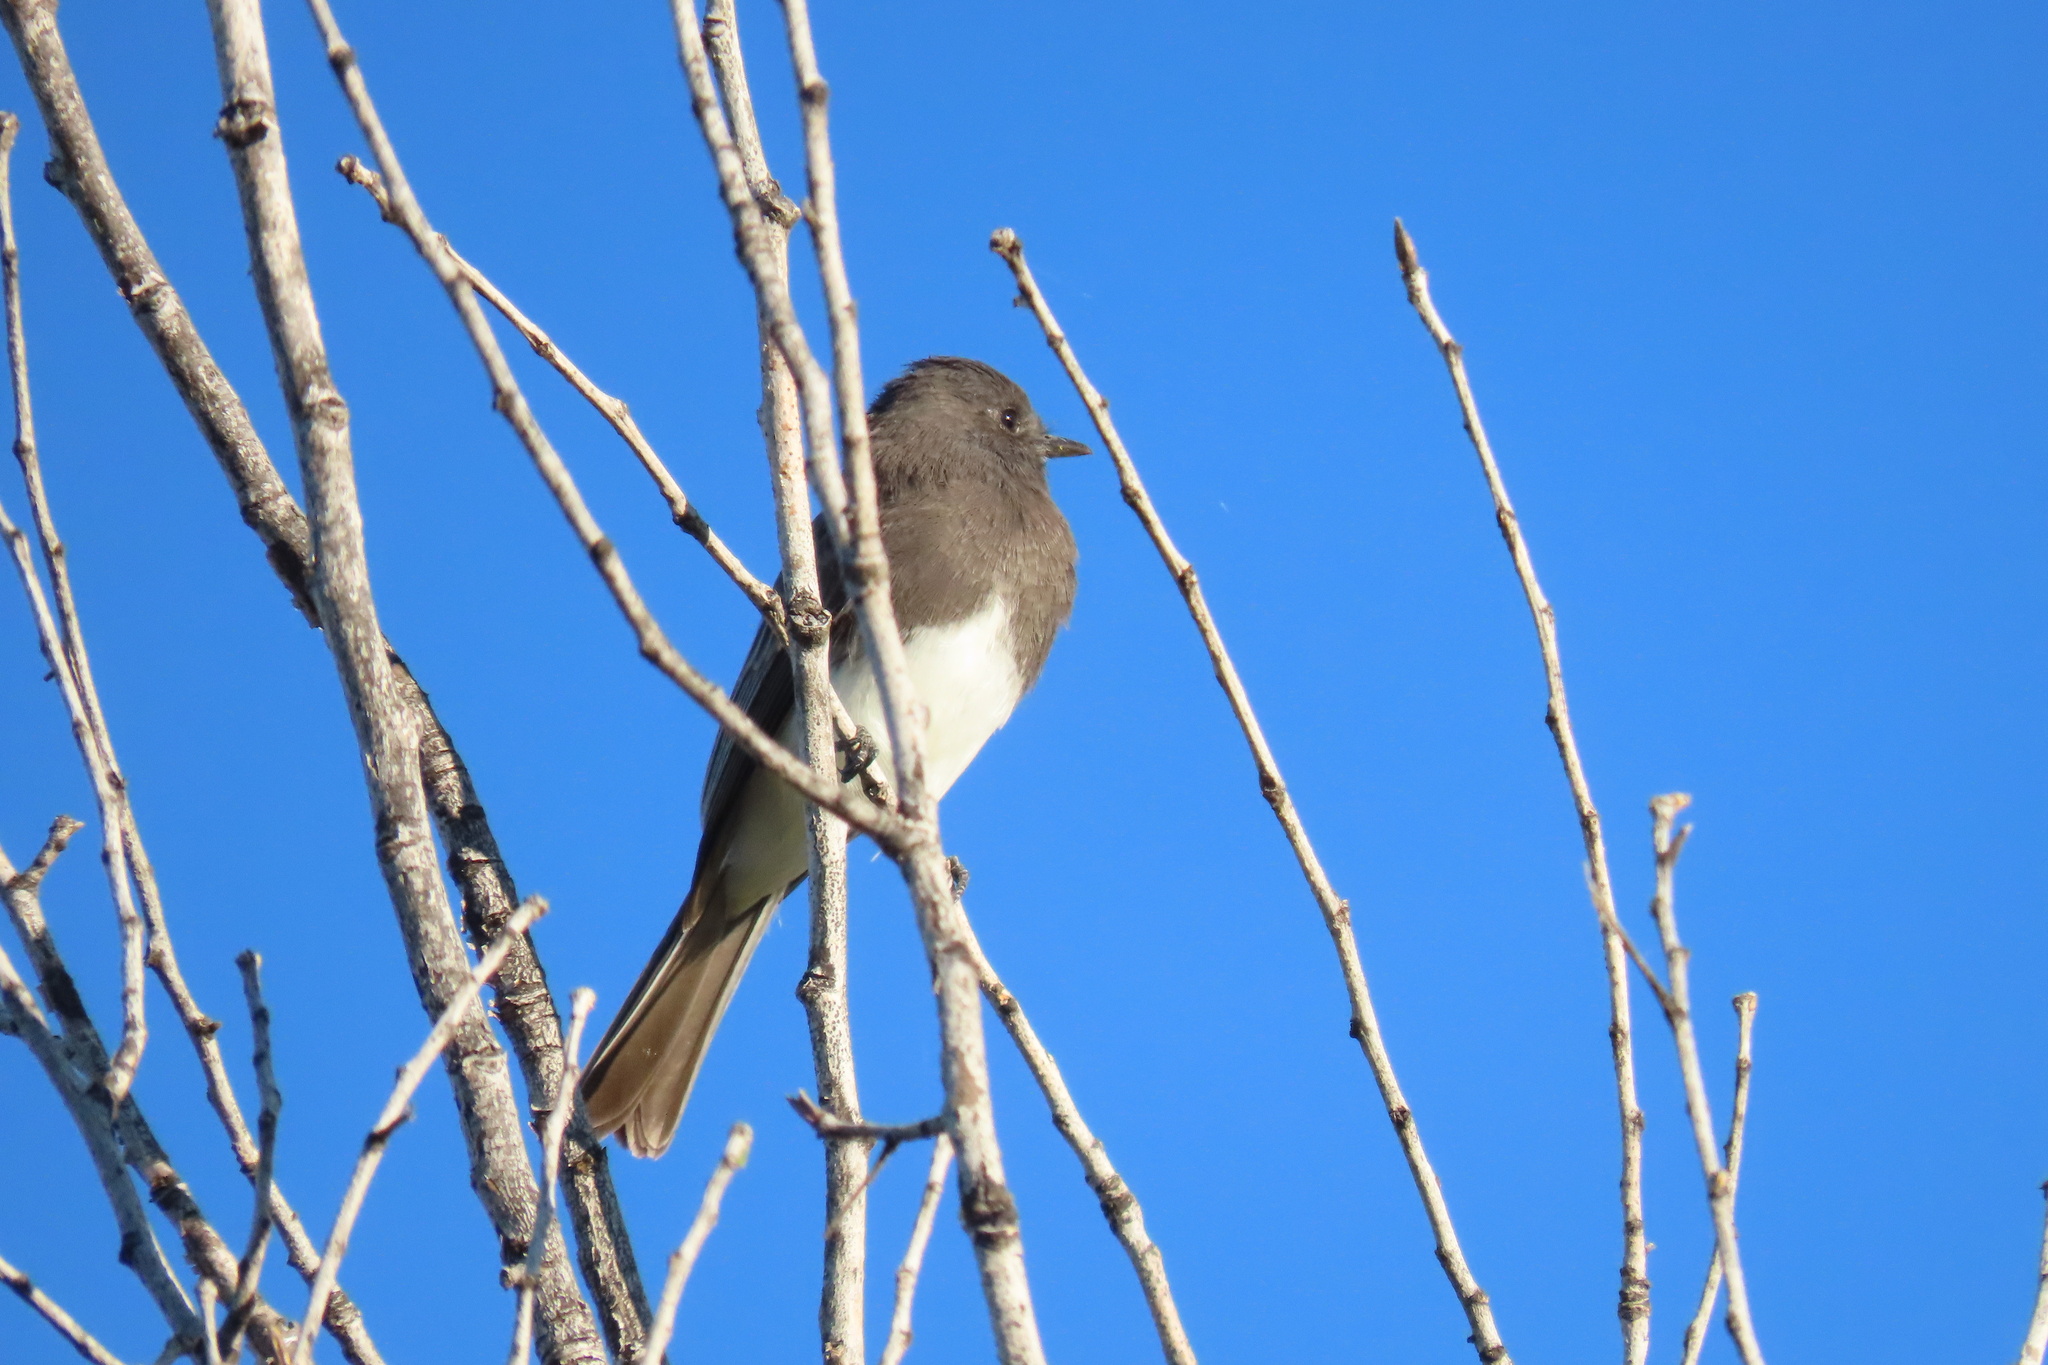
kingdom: Animalia
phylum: Chordata
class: Aves
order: Passeriformes
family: Tyrannidae
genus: Sayornis
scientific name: Sayornis nigricans
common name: Black phoebe
